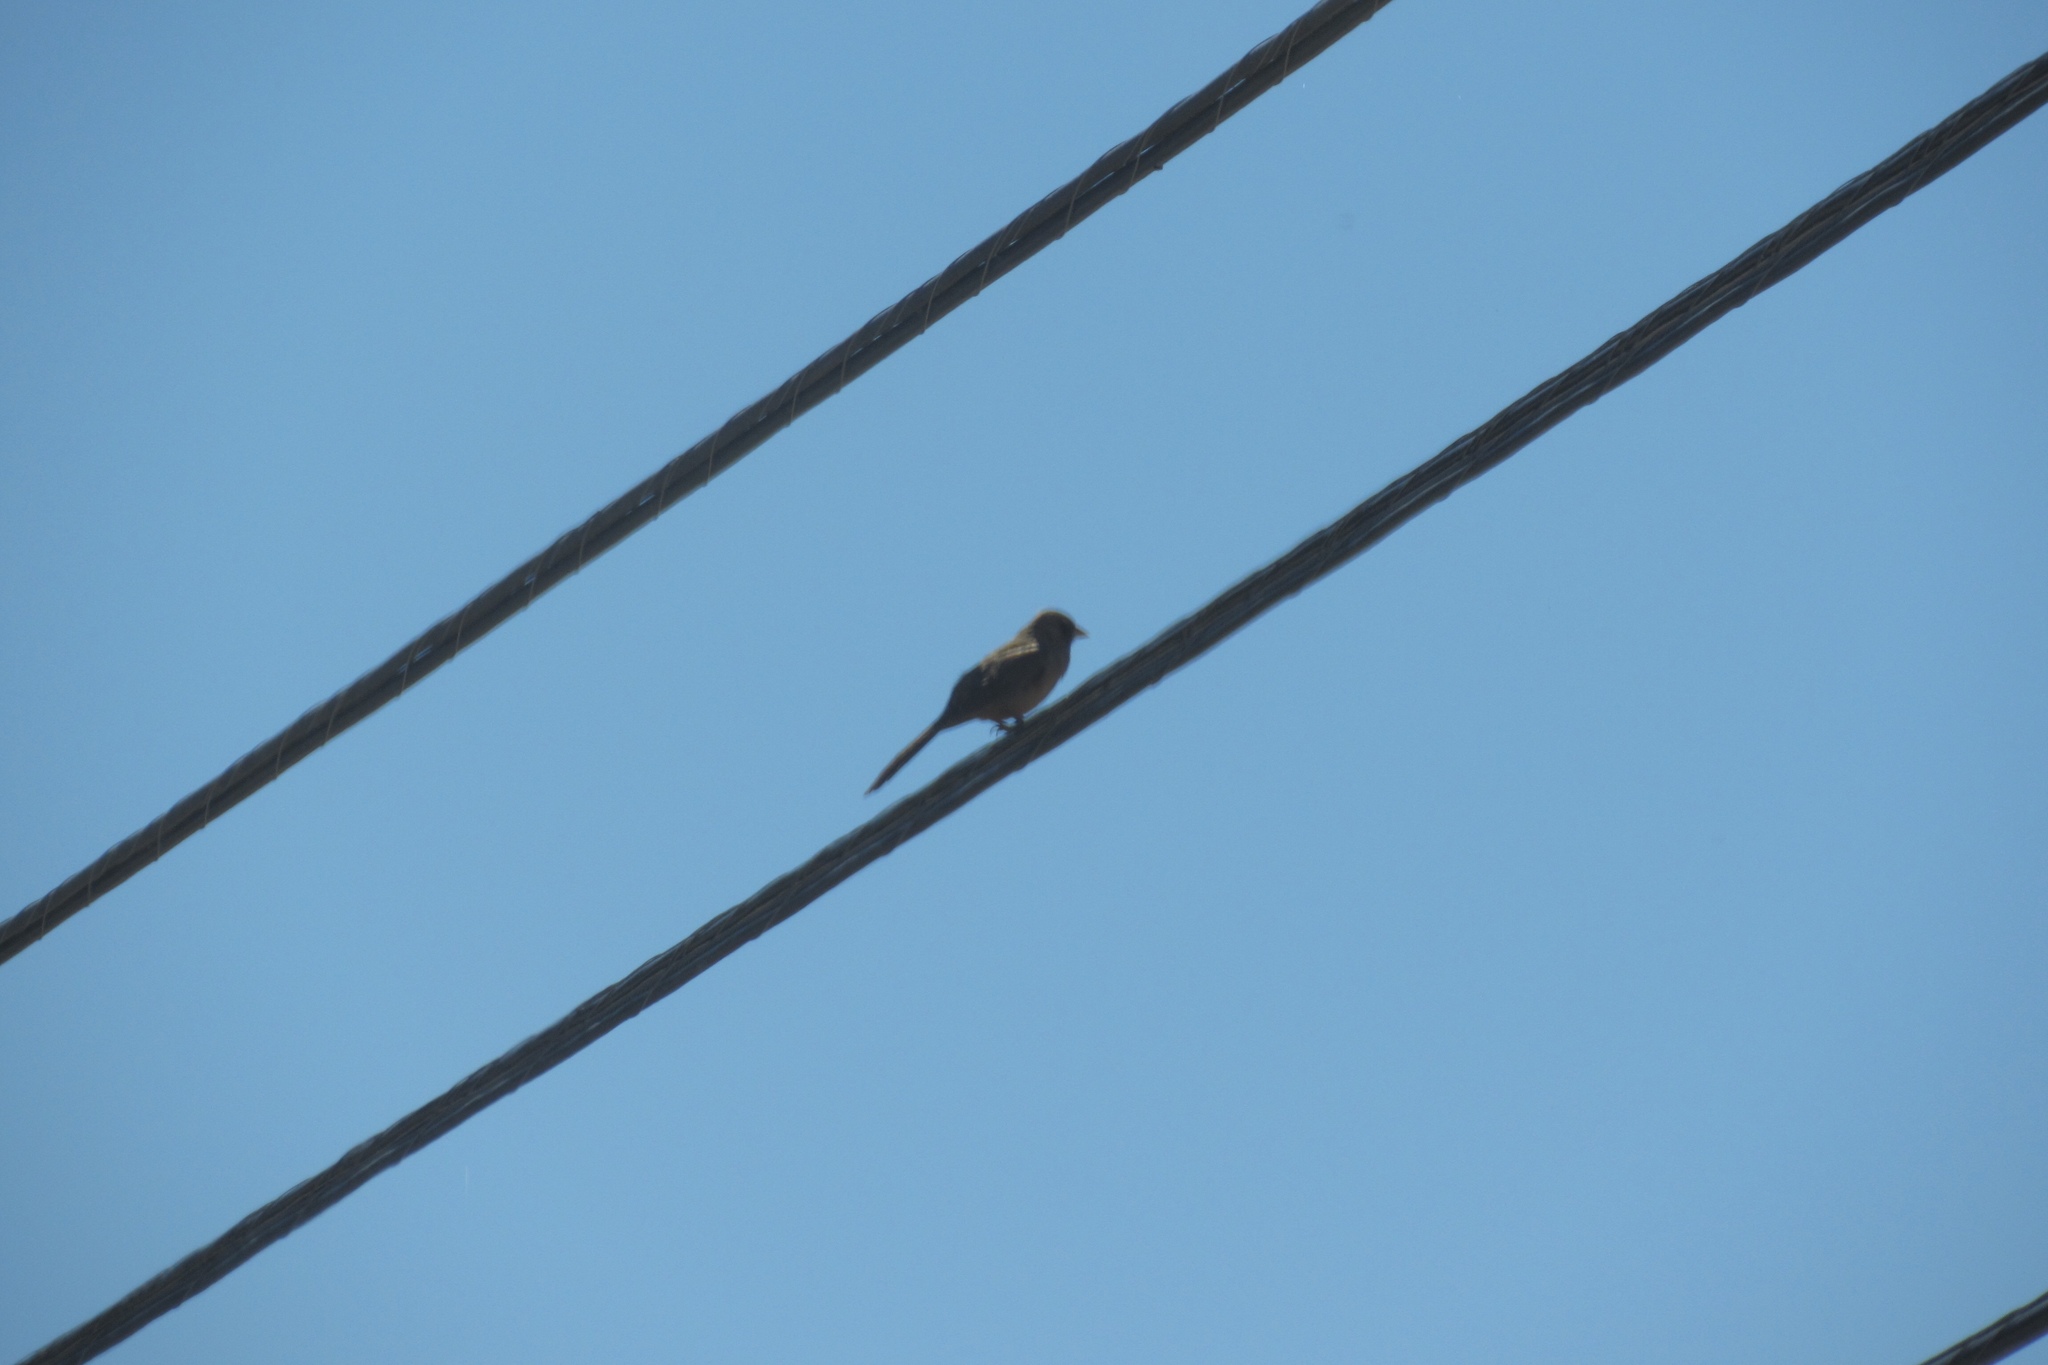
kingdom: Animalia
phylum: Chordata
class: Aves
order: Passeriformes
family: Passerellidae
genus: Melozone
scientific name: Melozone aberti
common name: Abert's towhee
